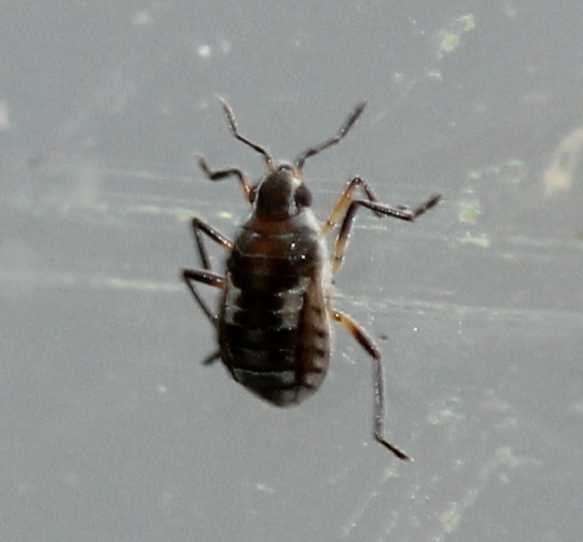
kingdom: Animalia
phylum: Arthropoda
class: Insecta
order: Hemiptera
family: Veliidae
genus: Microvelia
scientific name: Microvelia pulchella
